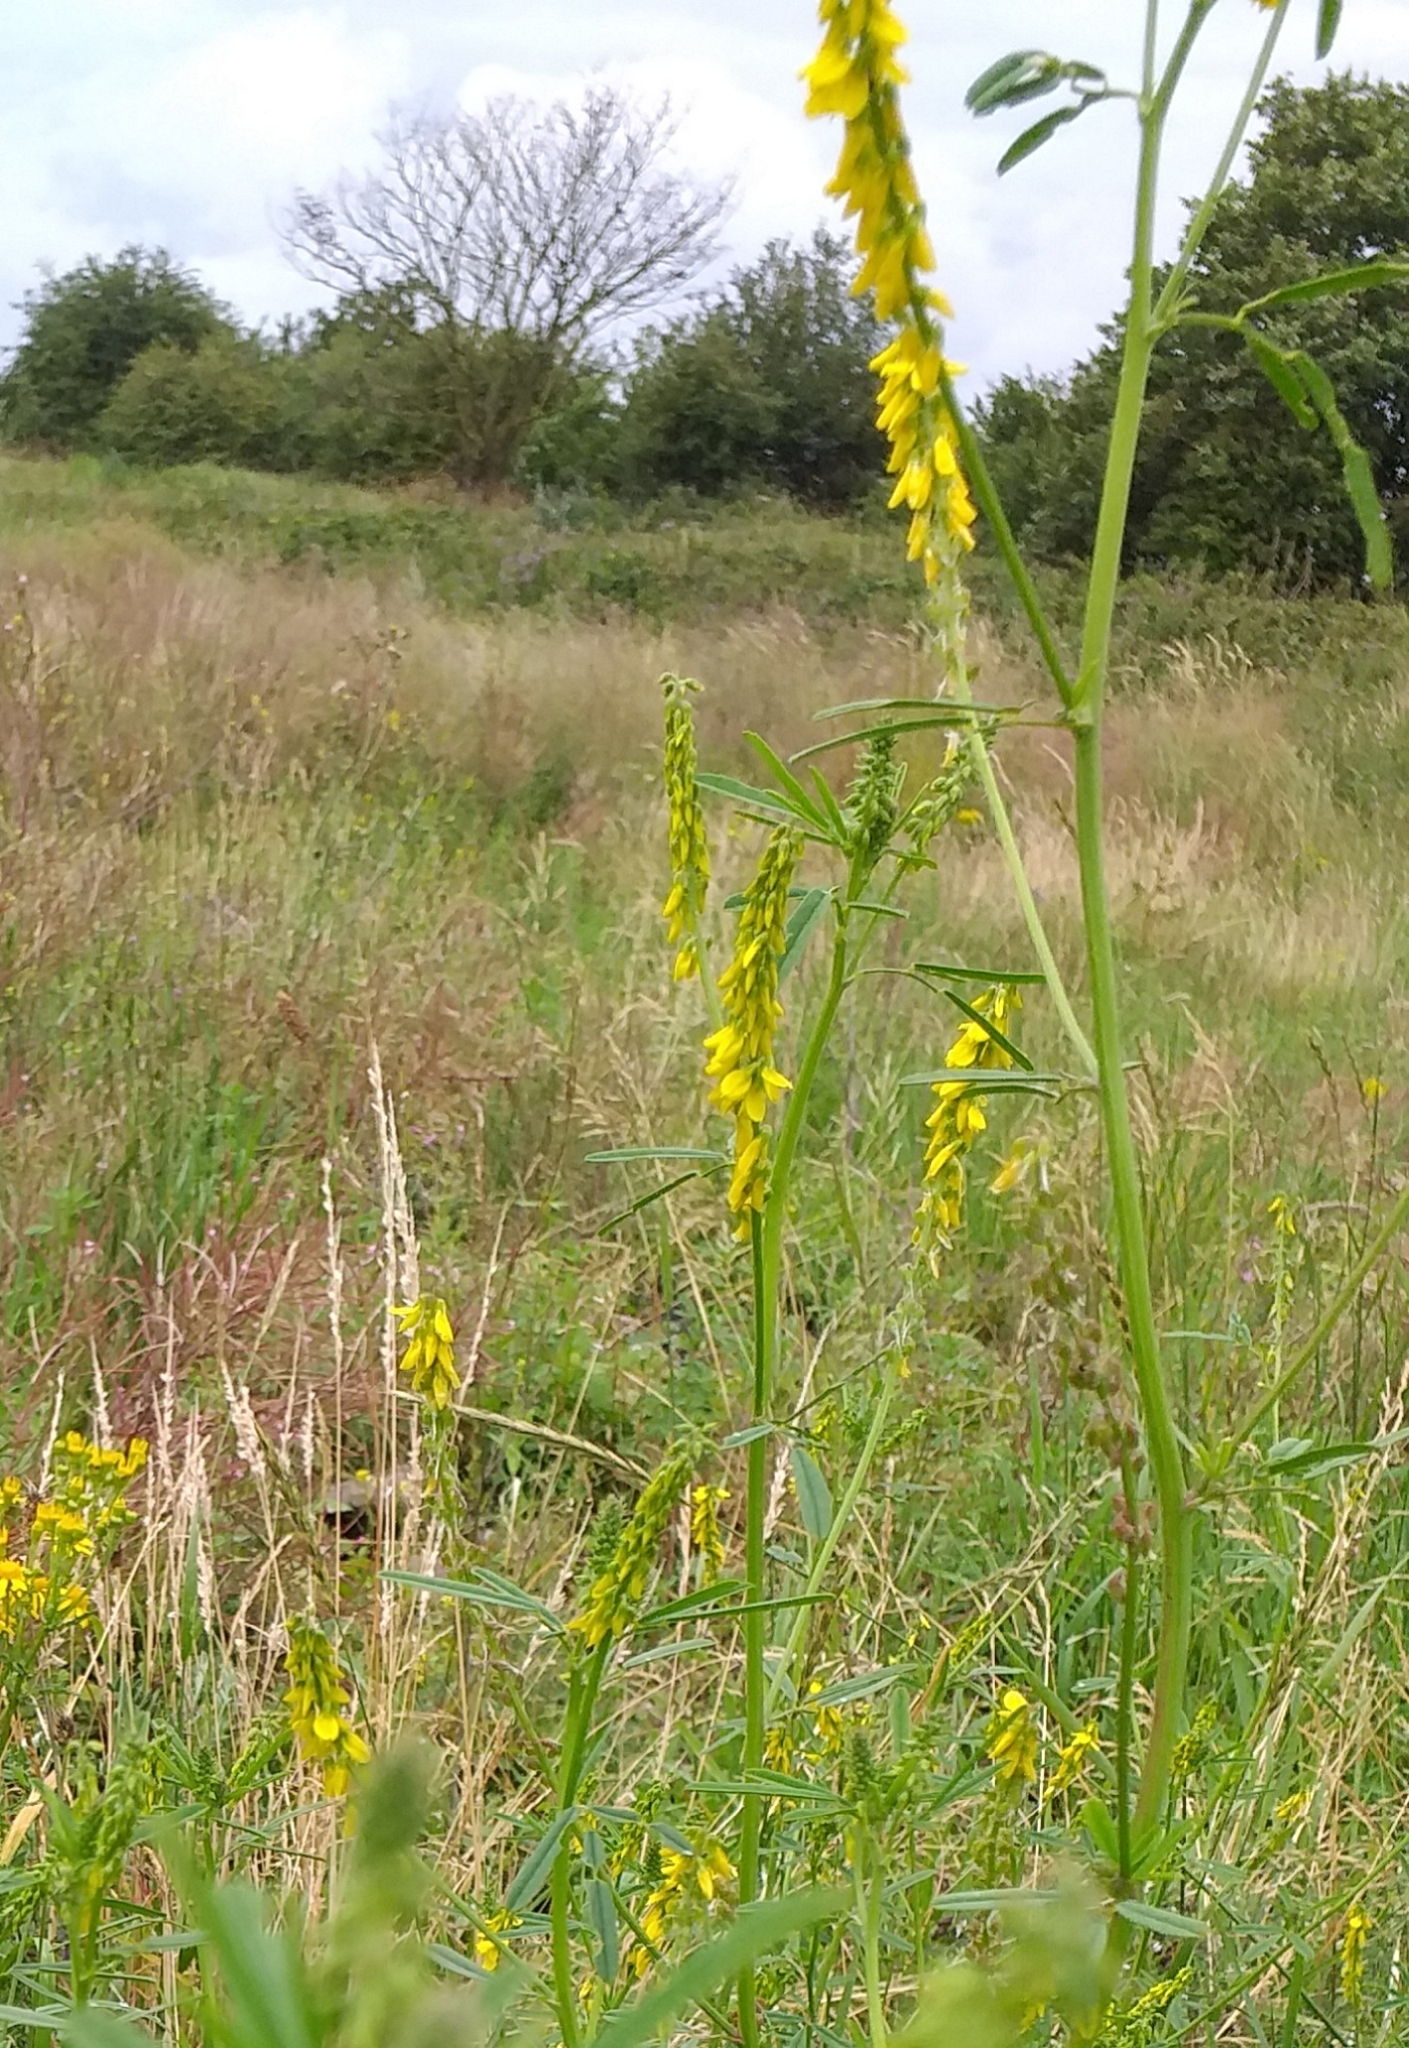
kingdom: Plantae
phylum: Tracheophyta
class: Magnoliopsida
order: Fabales
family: Fabaceae
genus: Melilotus
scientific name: Melilotus officinalis
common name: Sweetclover
